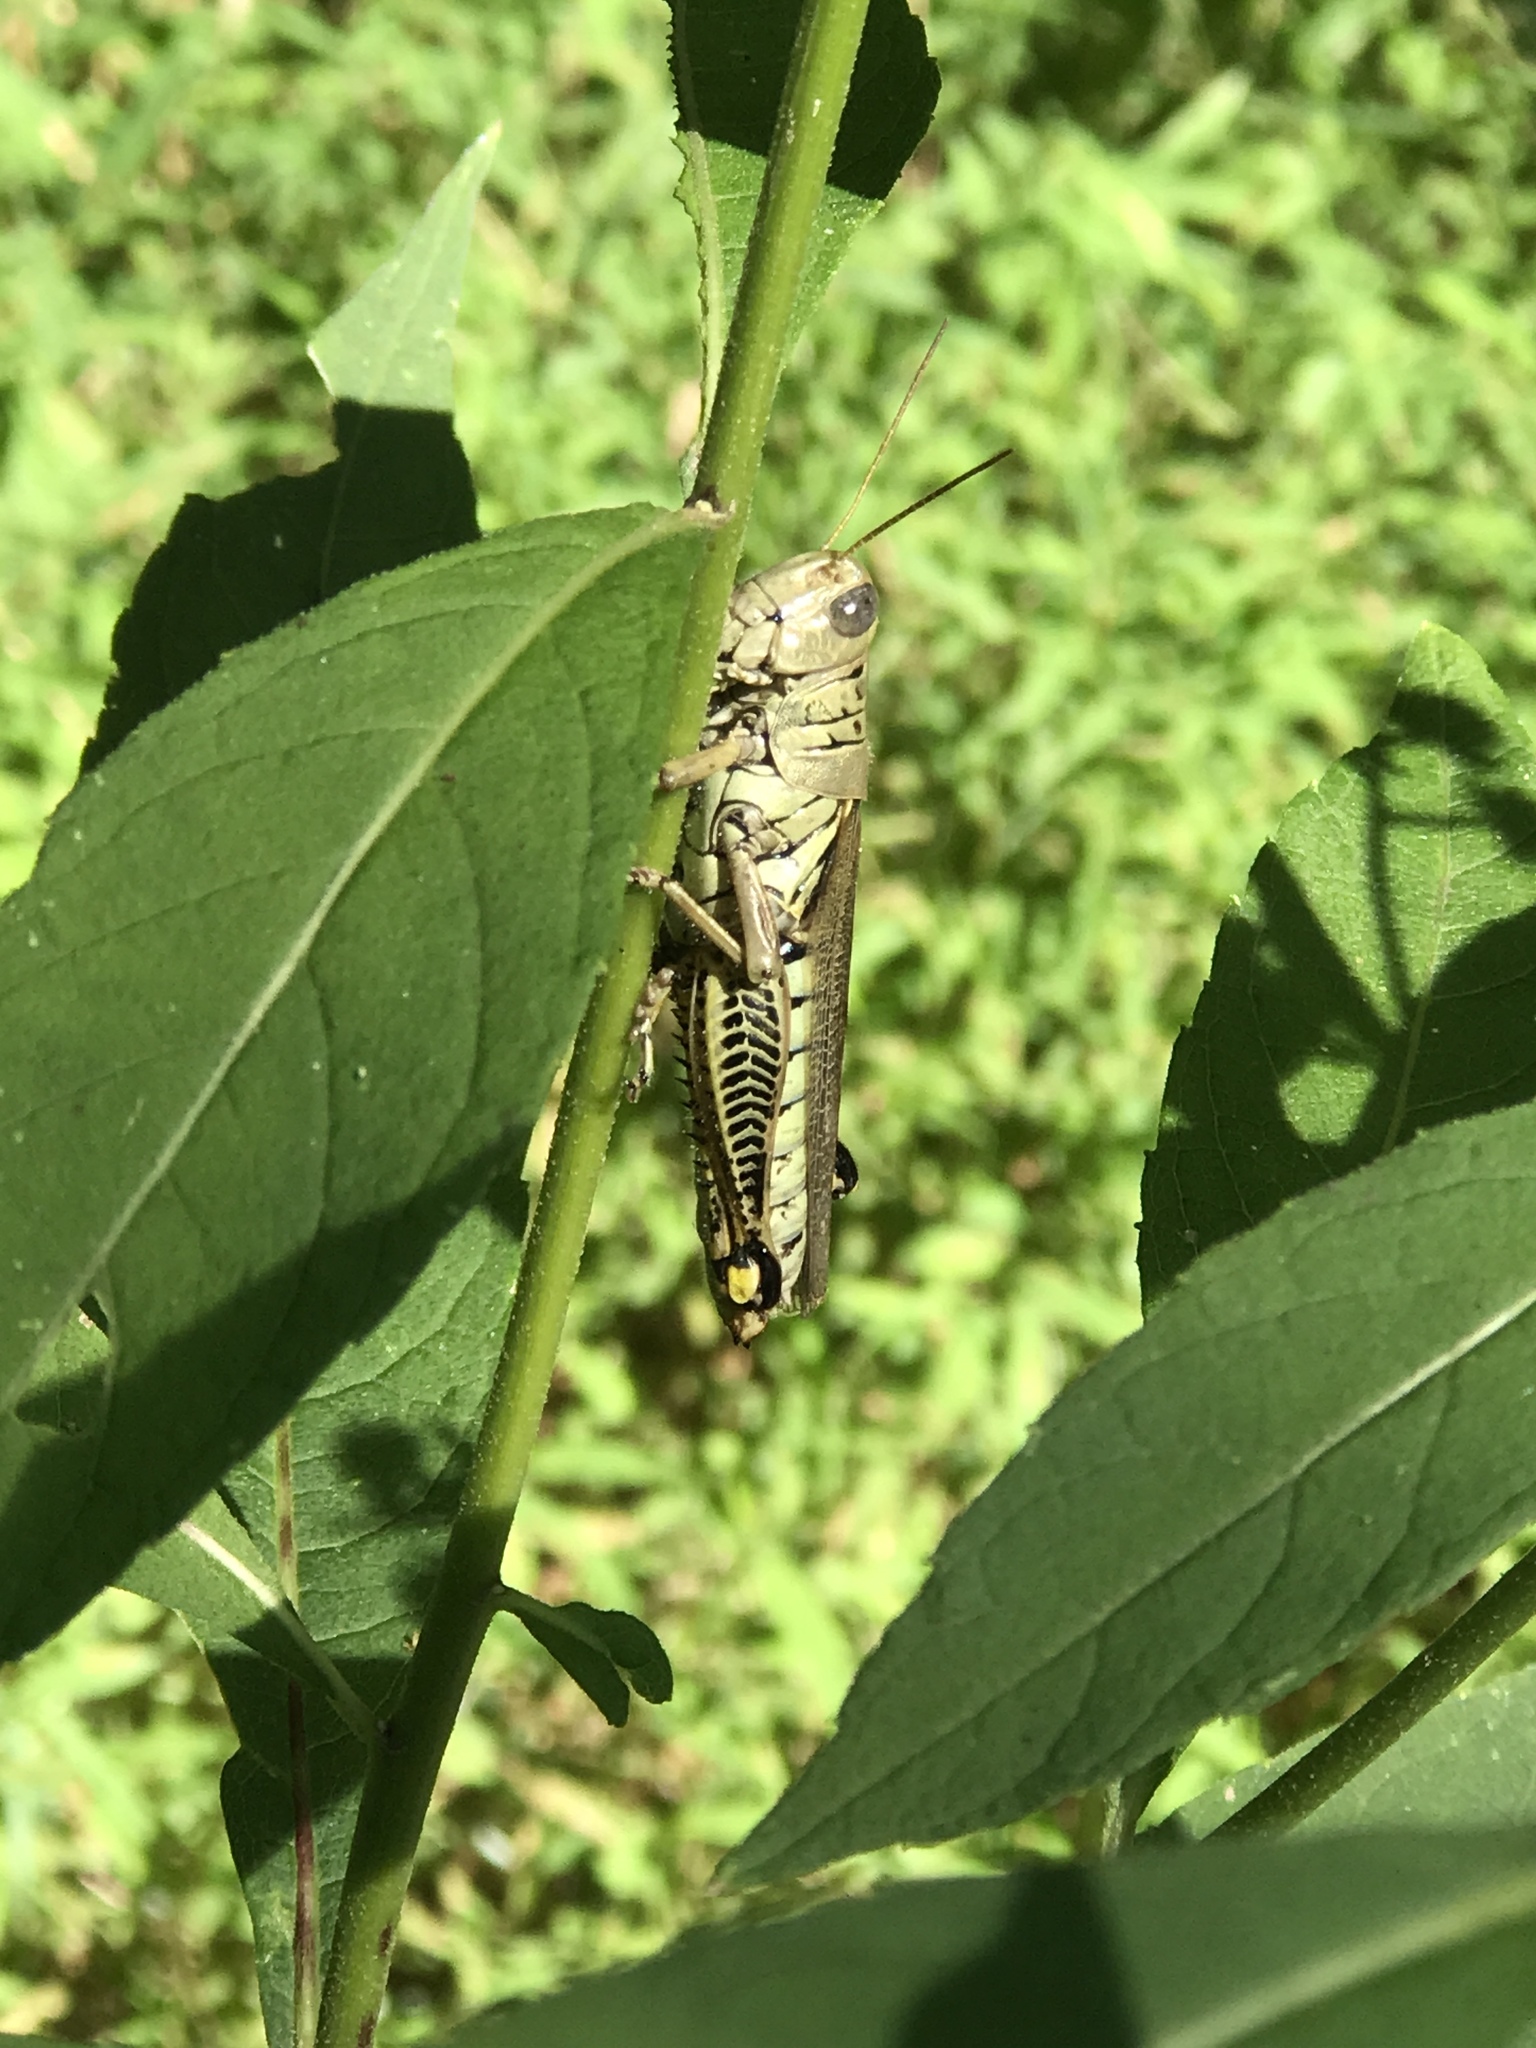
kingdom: Animalia
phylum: Arthropoda
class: Insecta
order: Orthoptera
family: Acrididae
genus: Melanoplus
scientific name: Melanoplus differentialis
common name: Differential grasshopper
